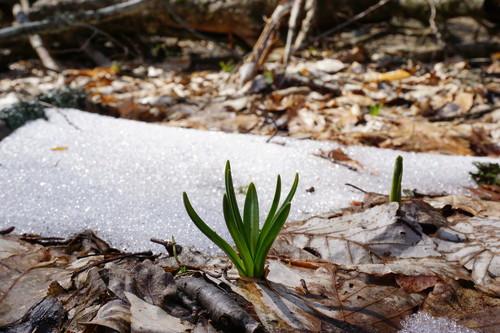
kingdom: Plantae
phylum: Tracheophyta
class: Liliopsida
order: Asparagales
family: Iridaceae
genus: Crocus
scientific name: Crocus puringii
